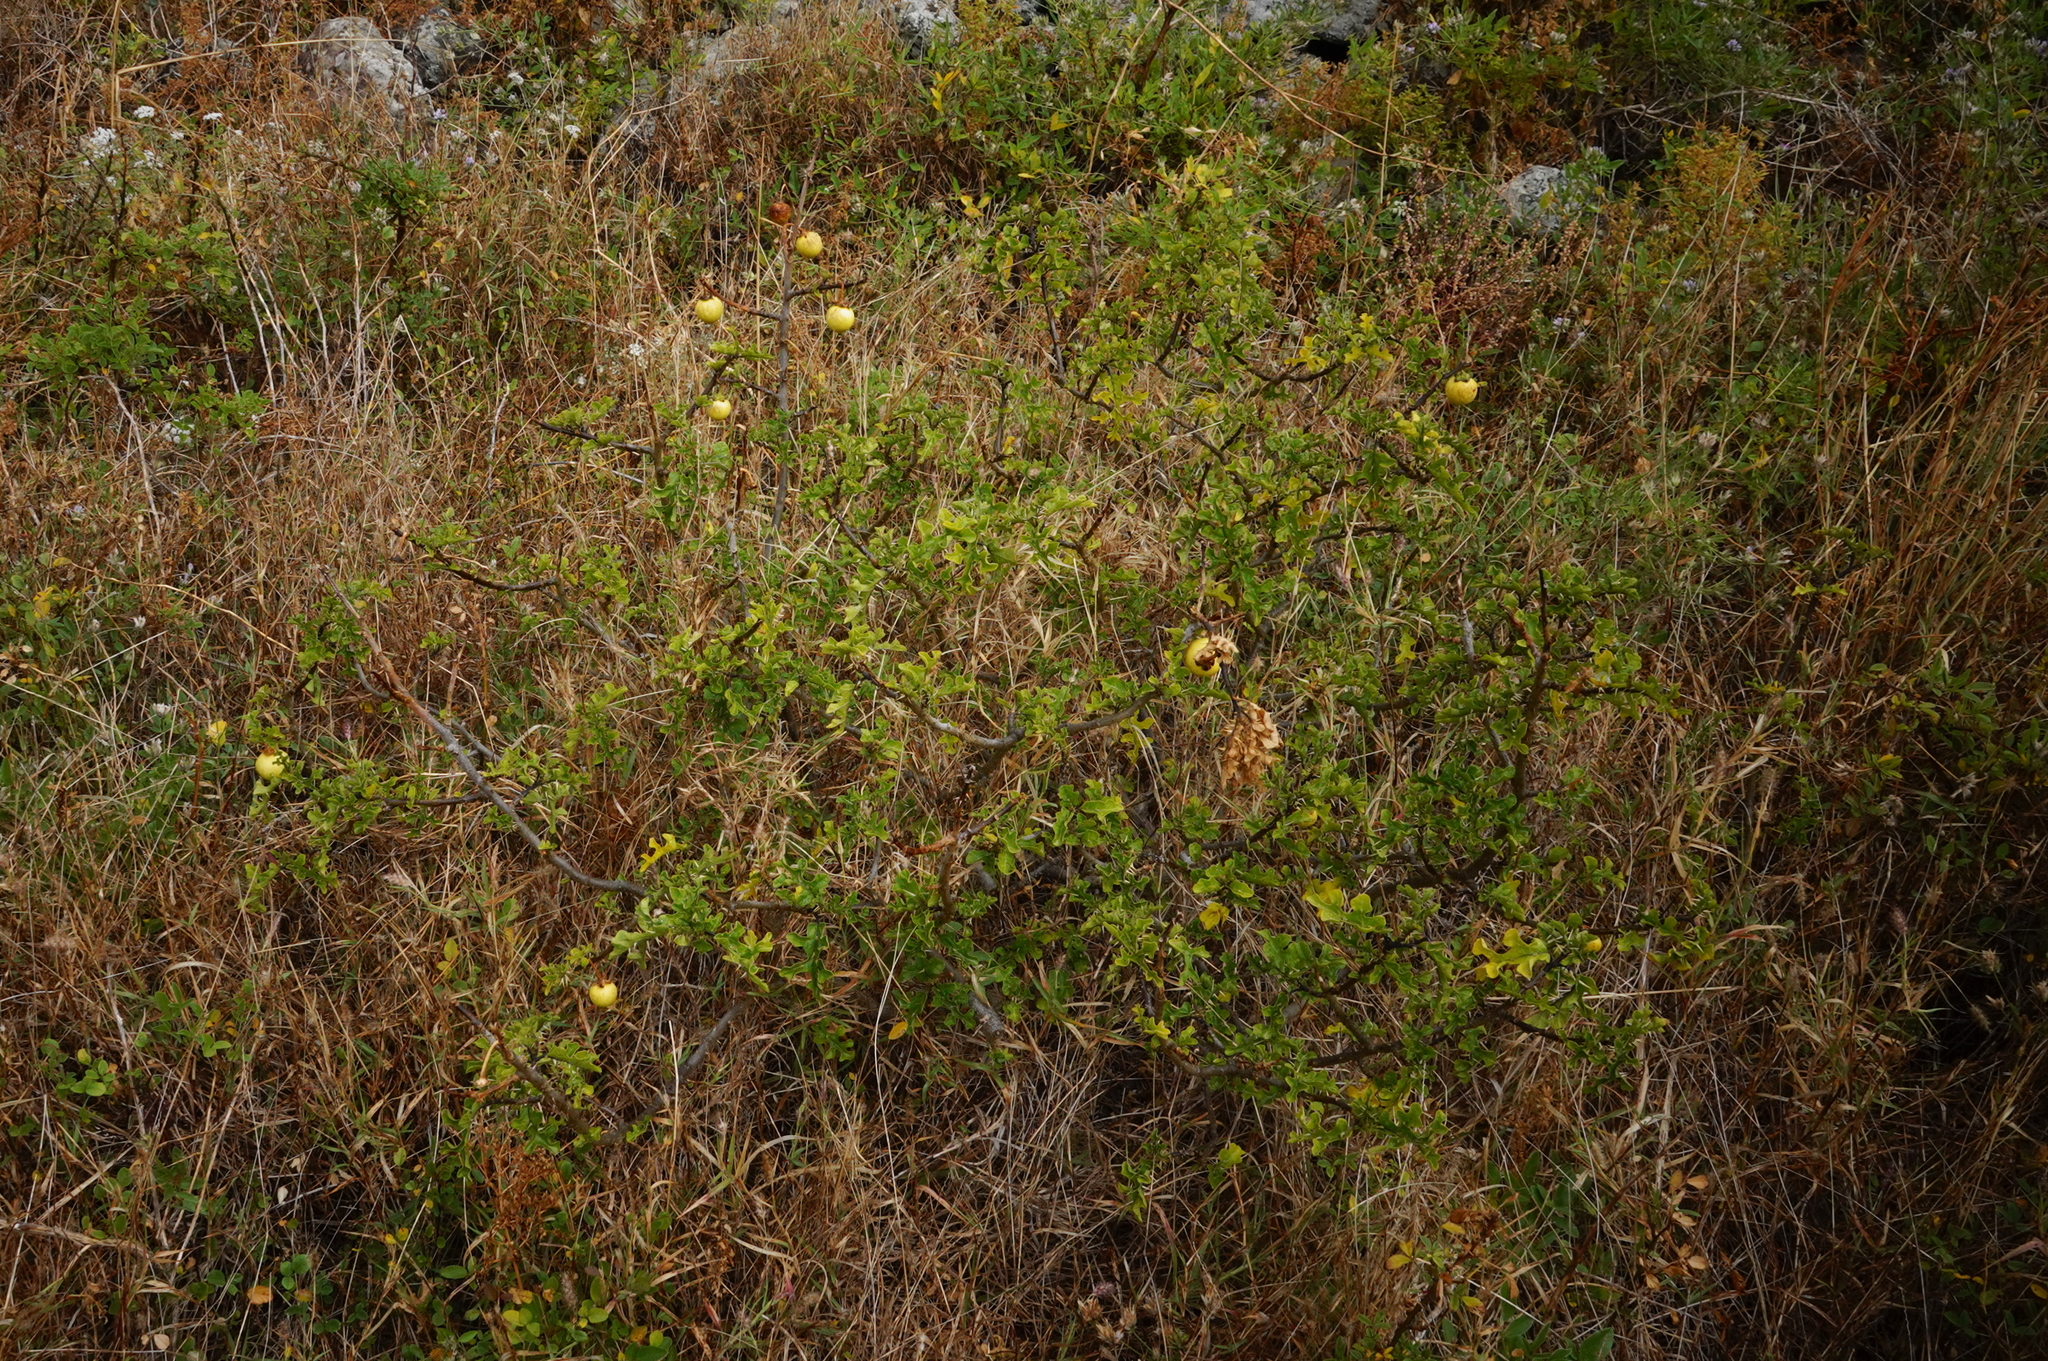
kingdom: Plantae
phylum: Tracheophyta
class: Magnoliopsida
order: Solanales
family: Solanaceae
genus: Solanum
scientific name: Solanum linnaeanum
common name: Nightshade
